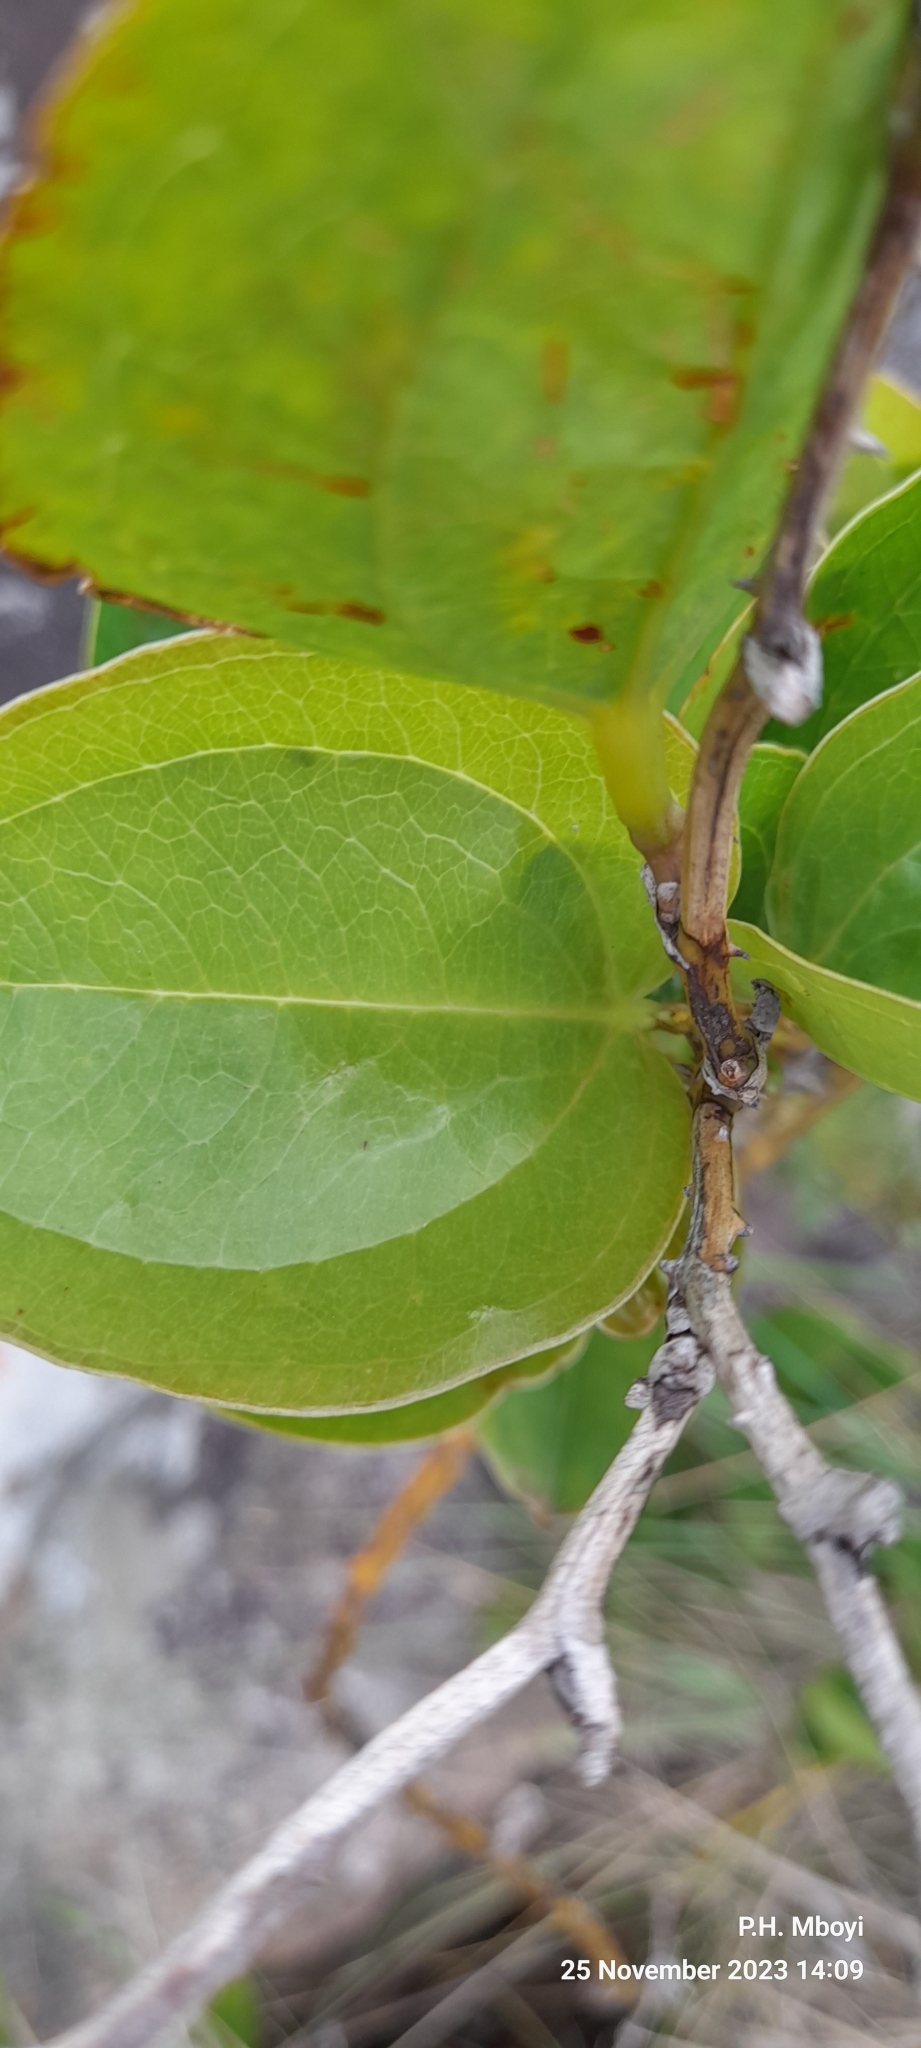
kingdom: Plantae
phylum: Tracheophyta
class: Liliopsida
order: Liliales
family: Smilacaceae
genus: Smilax
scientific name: Smilax anceps
